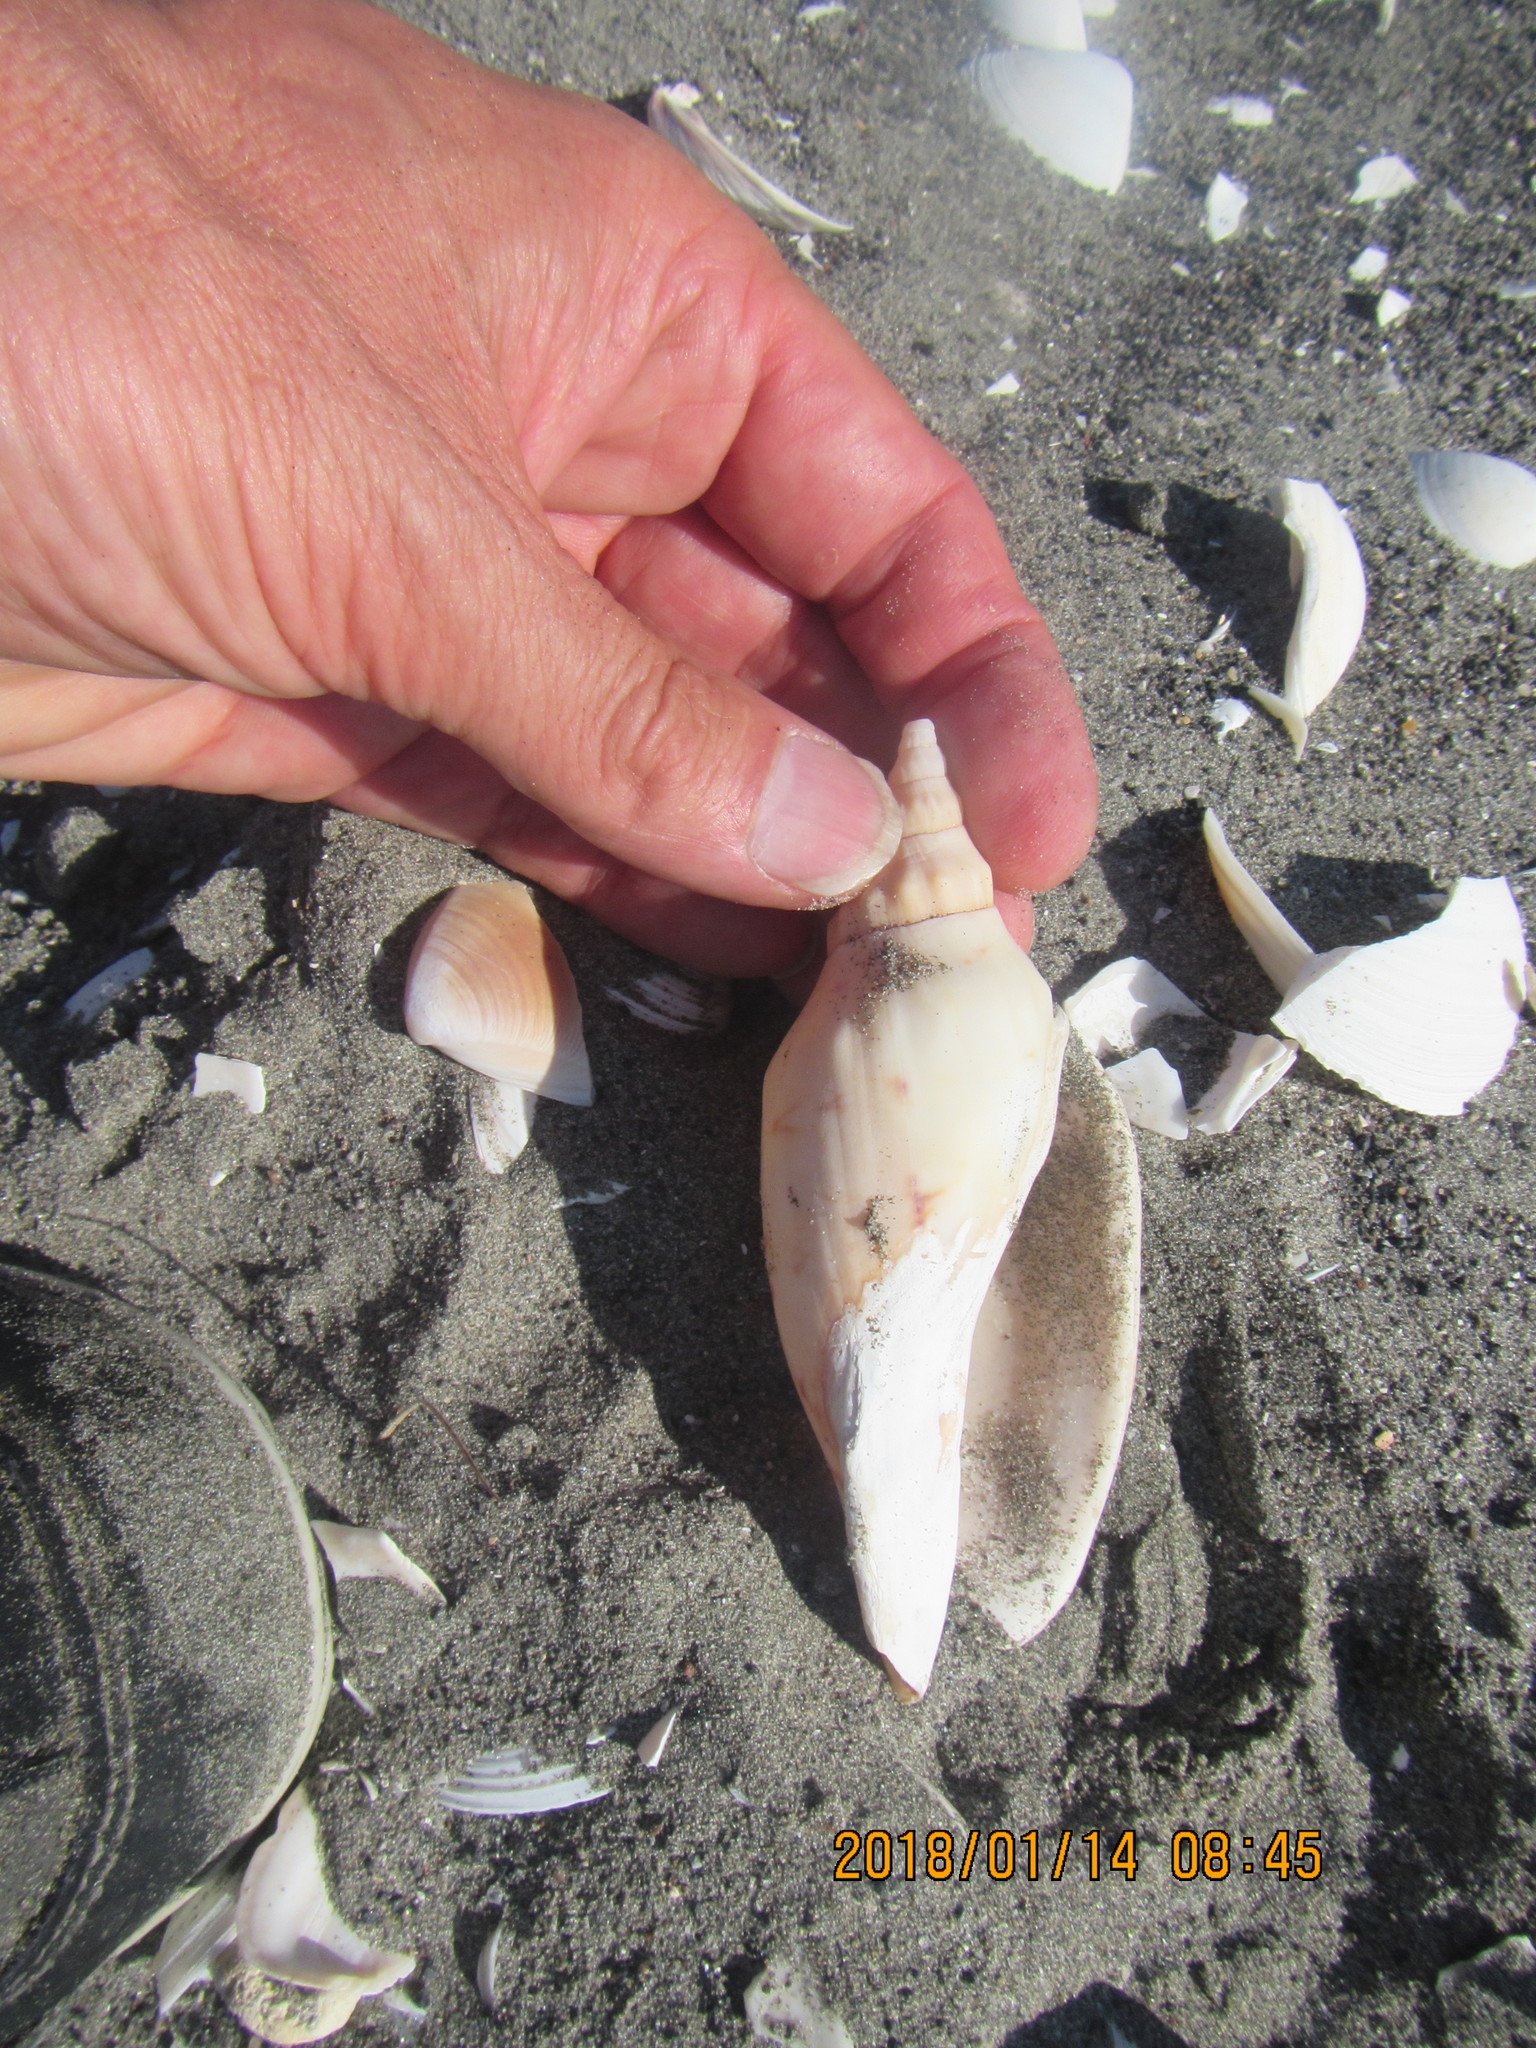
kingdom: Animalia
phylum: Mollusca
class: Gastropoda
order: Neogastropoda
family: Volutidae
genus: Alcithoe
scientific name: Alcithoe arabica
